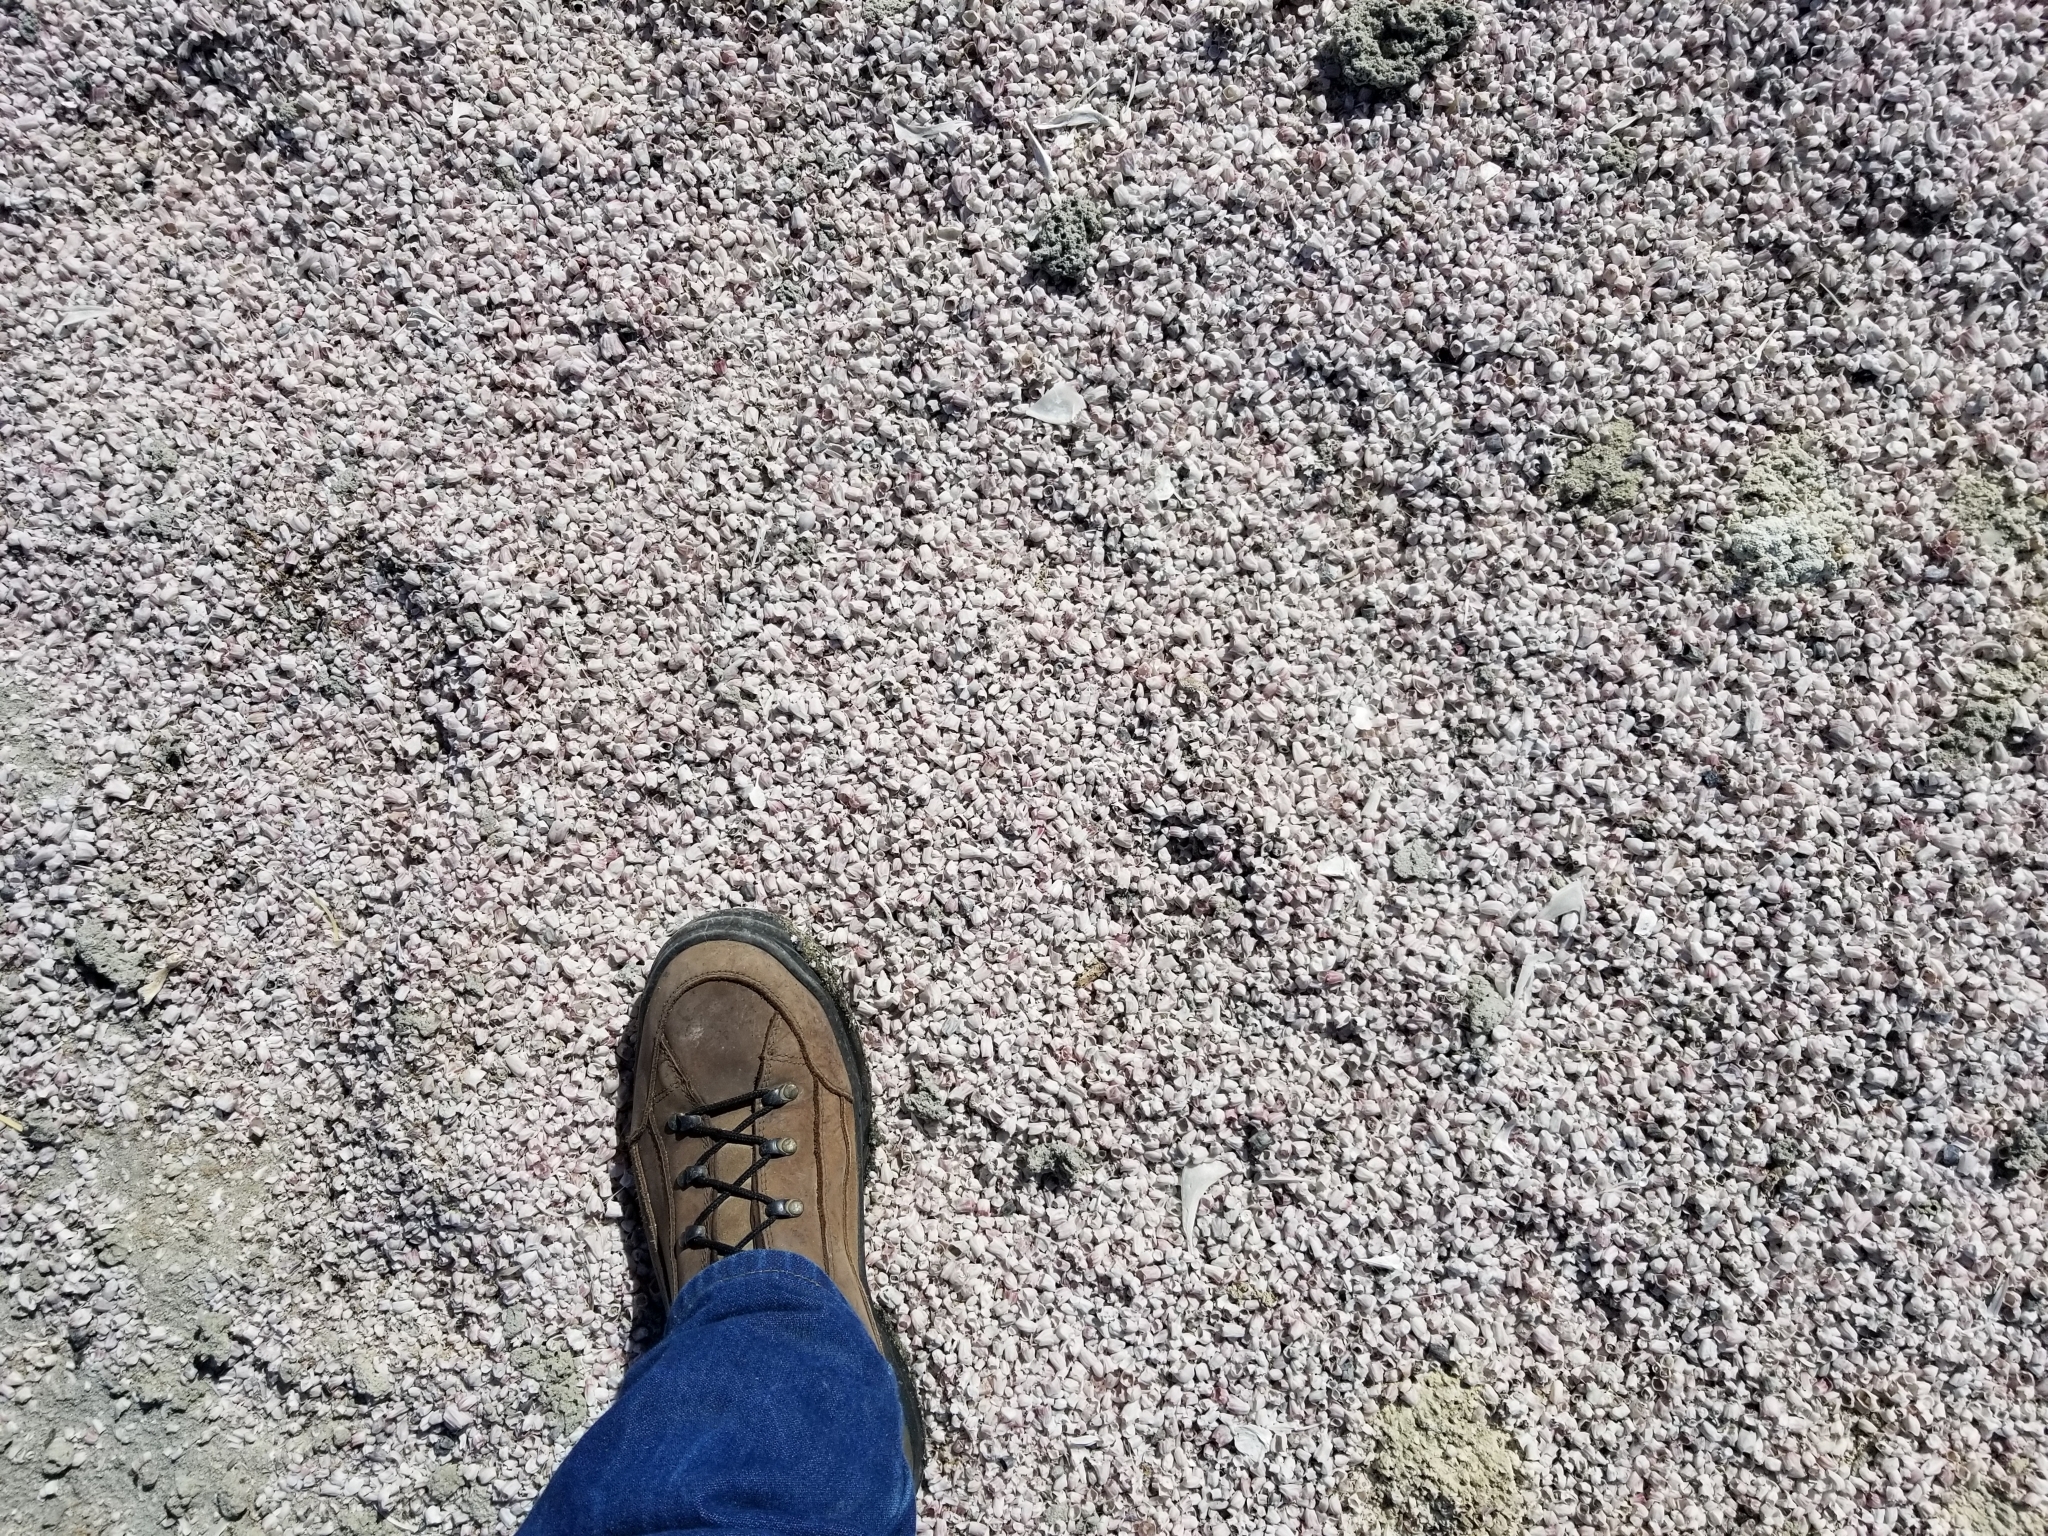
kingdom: Animalia
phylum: Arthropoda
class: Maxillopoda
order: Sessilia
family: Balanidae
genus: Amphibalanus
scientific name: Amphibalanus amphitrite
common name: Striped acorn barnacle
